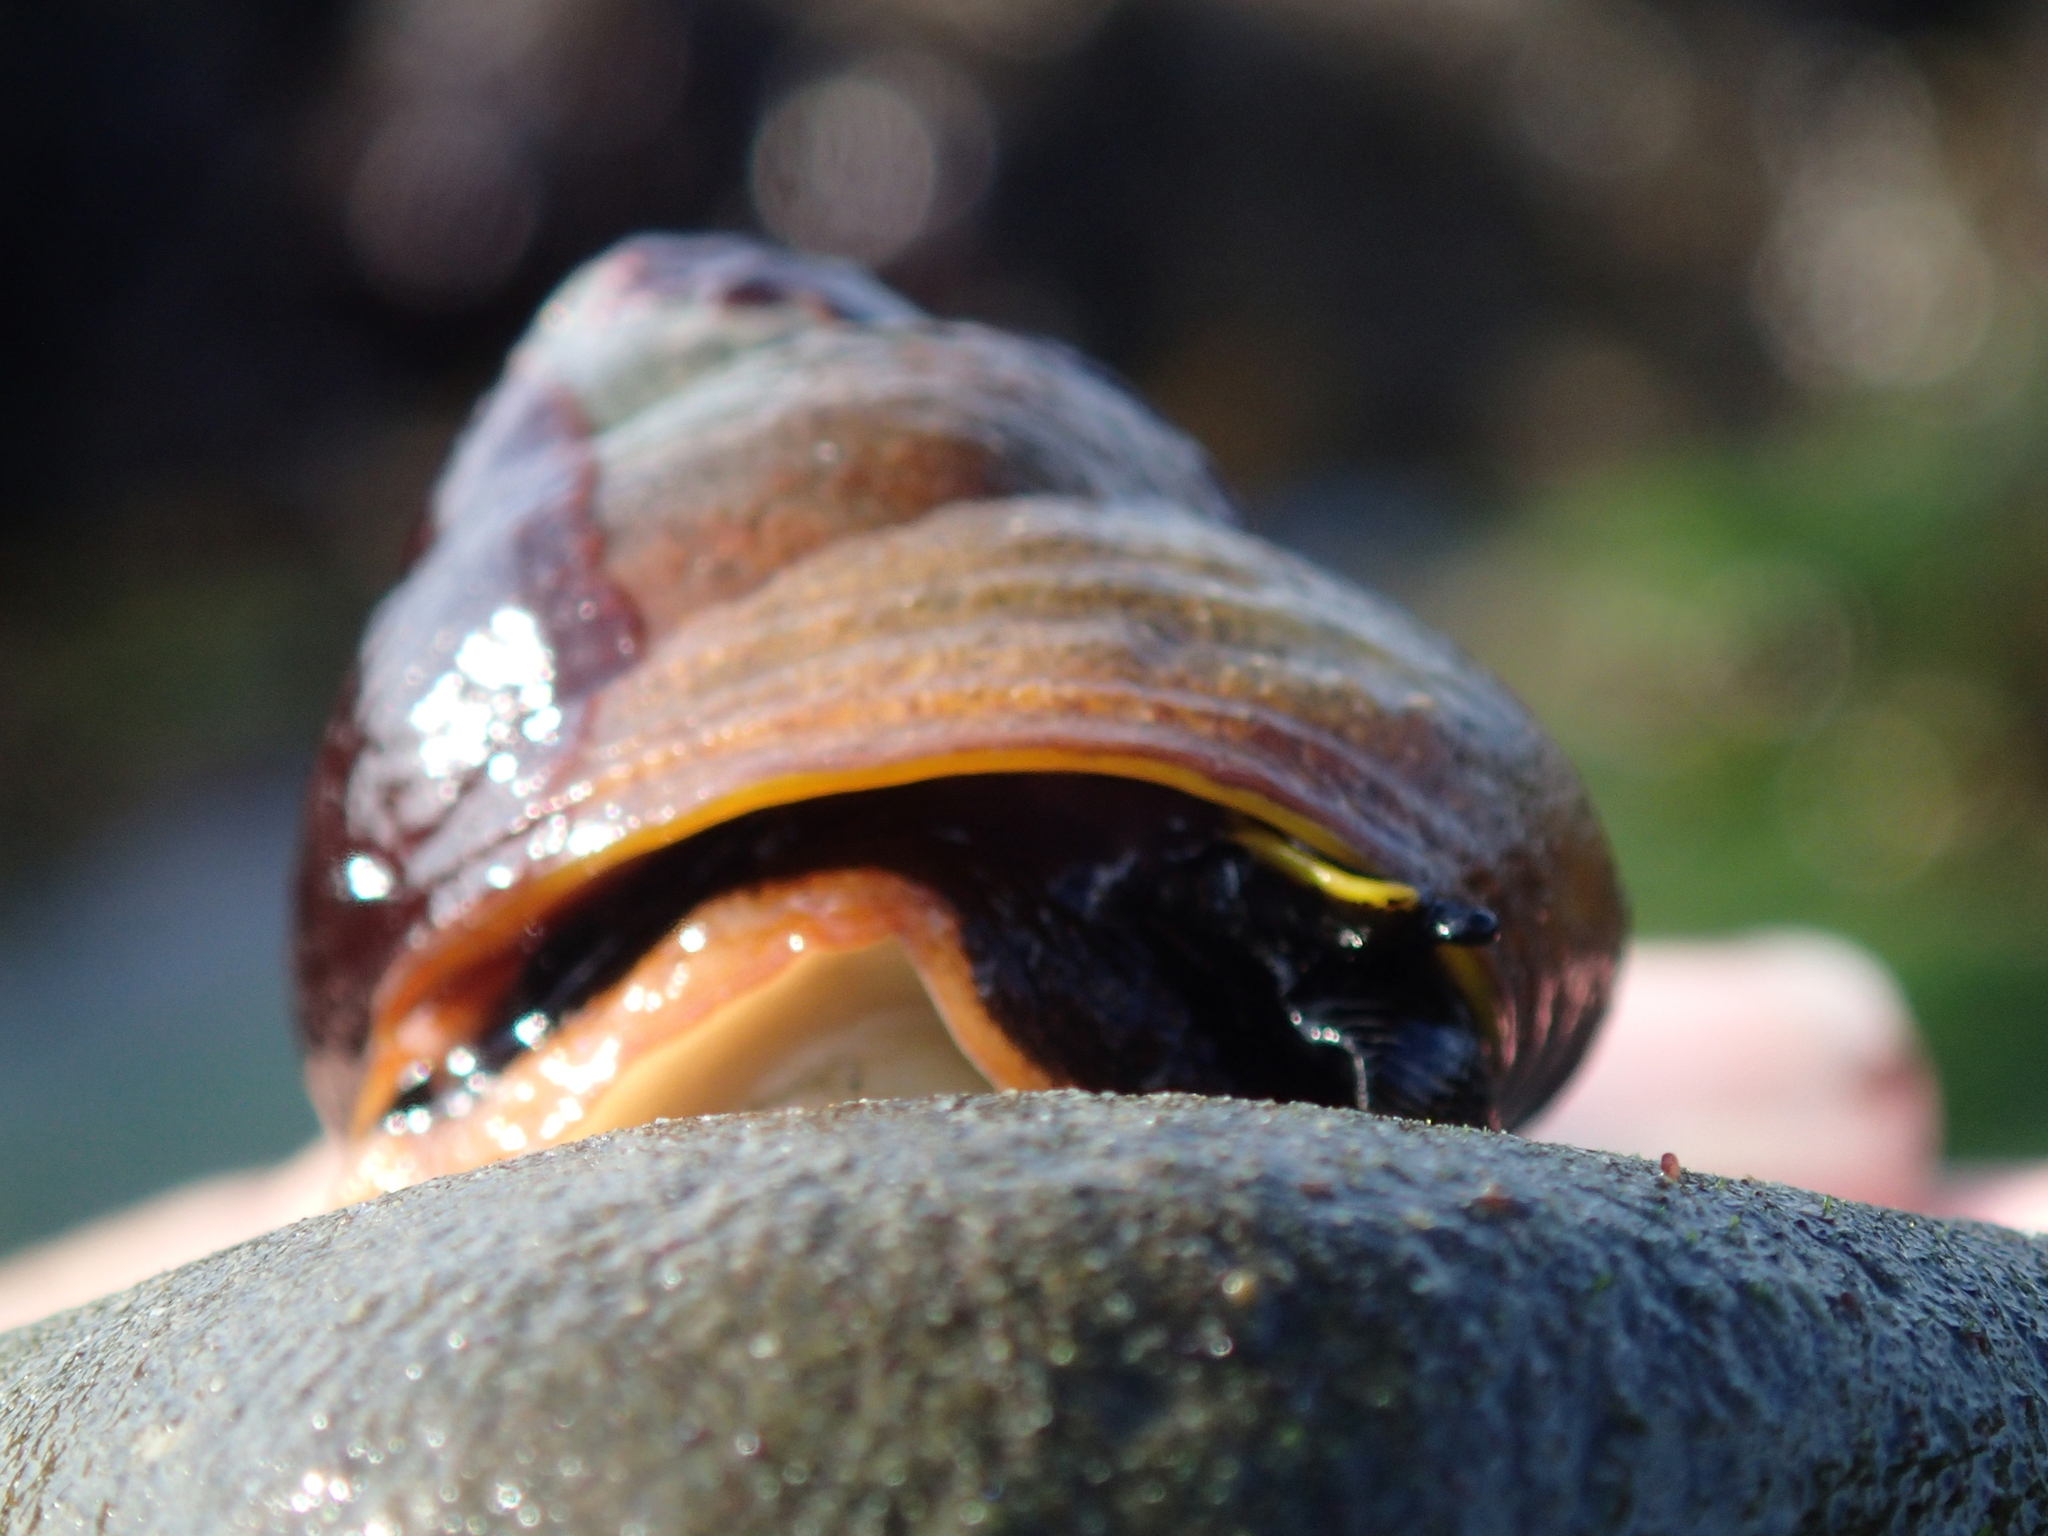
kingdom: Animalia
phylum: Mollusca
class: Gastropoda
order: Trochida
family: Tegulidae
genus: Tegula
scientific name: Tegula brunnea
